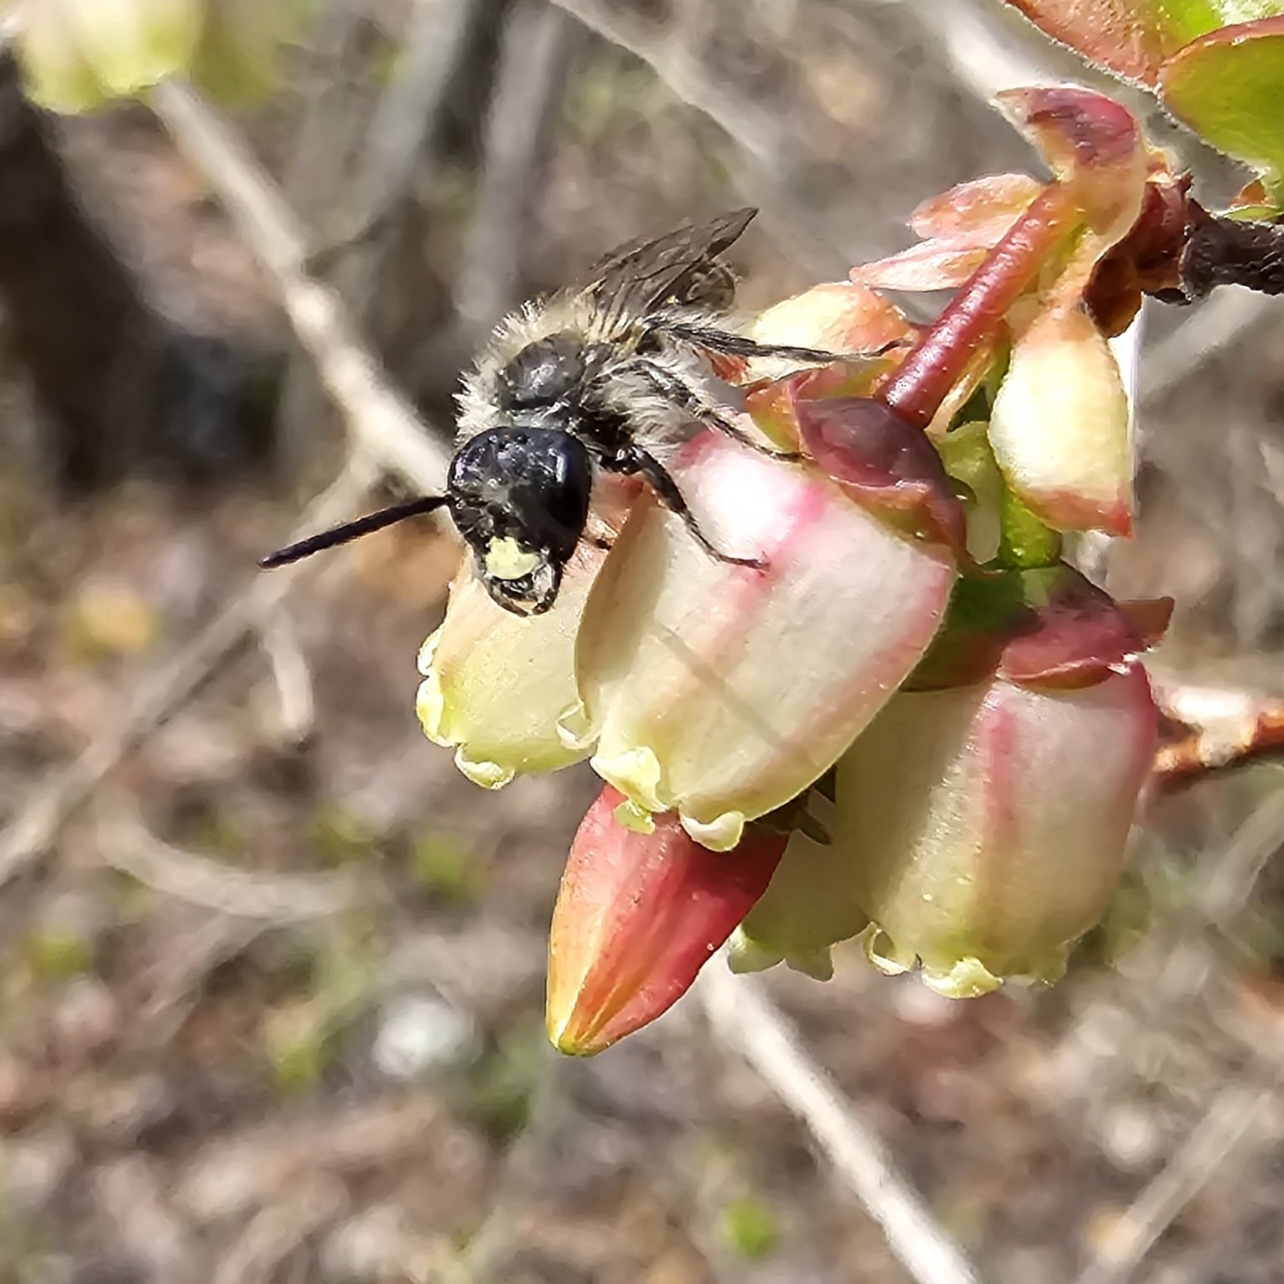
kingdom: Animalia
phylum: Arthropoda
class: Insecta
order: Hymenoptera
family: Andrenidae
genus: Andrena
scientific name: Andrena bradleyi
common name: Bradley's mining bee
